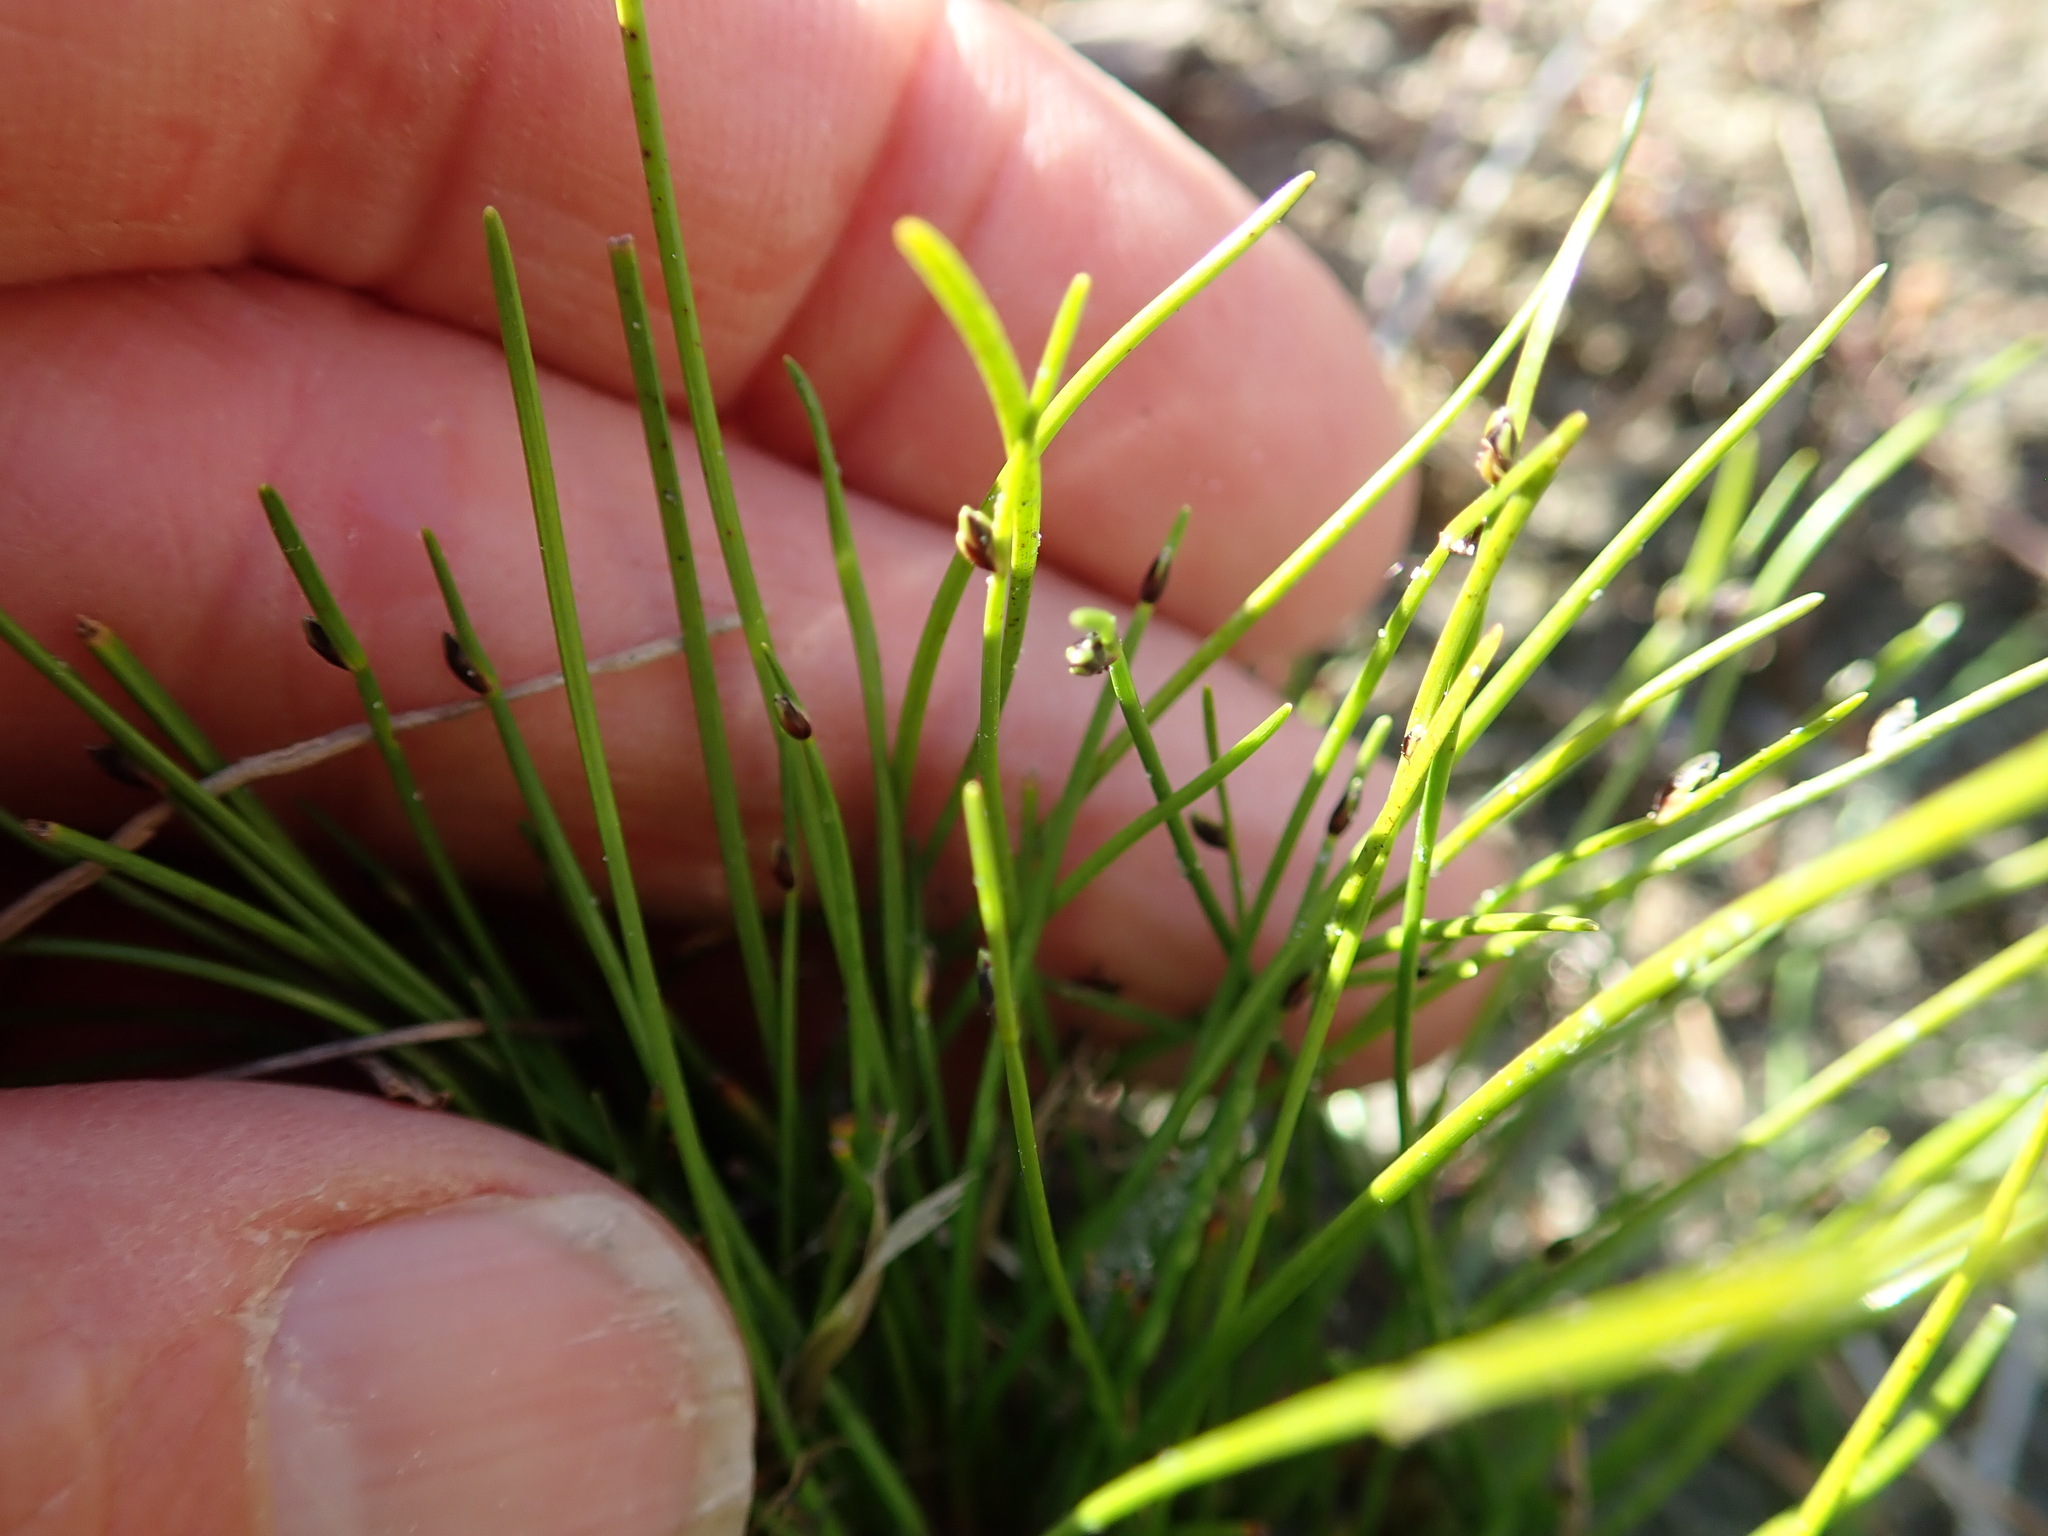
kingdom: Plantae
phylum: Tracheophyta
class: Liliopsida
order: Poales
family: Cyperaceae
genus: Isolepis
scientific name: Isolepis cernua
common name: Slender club-rush
